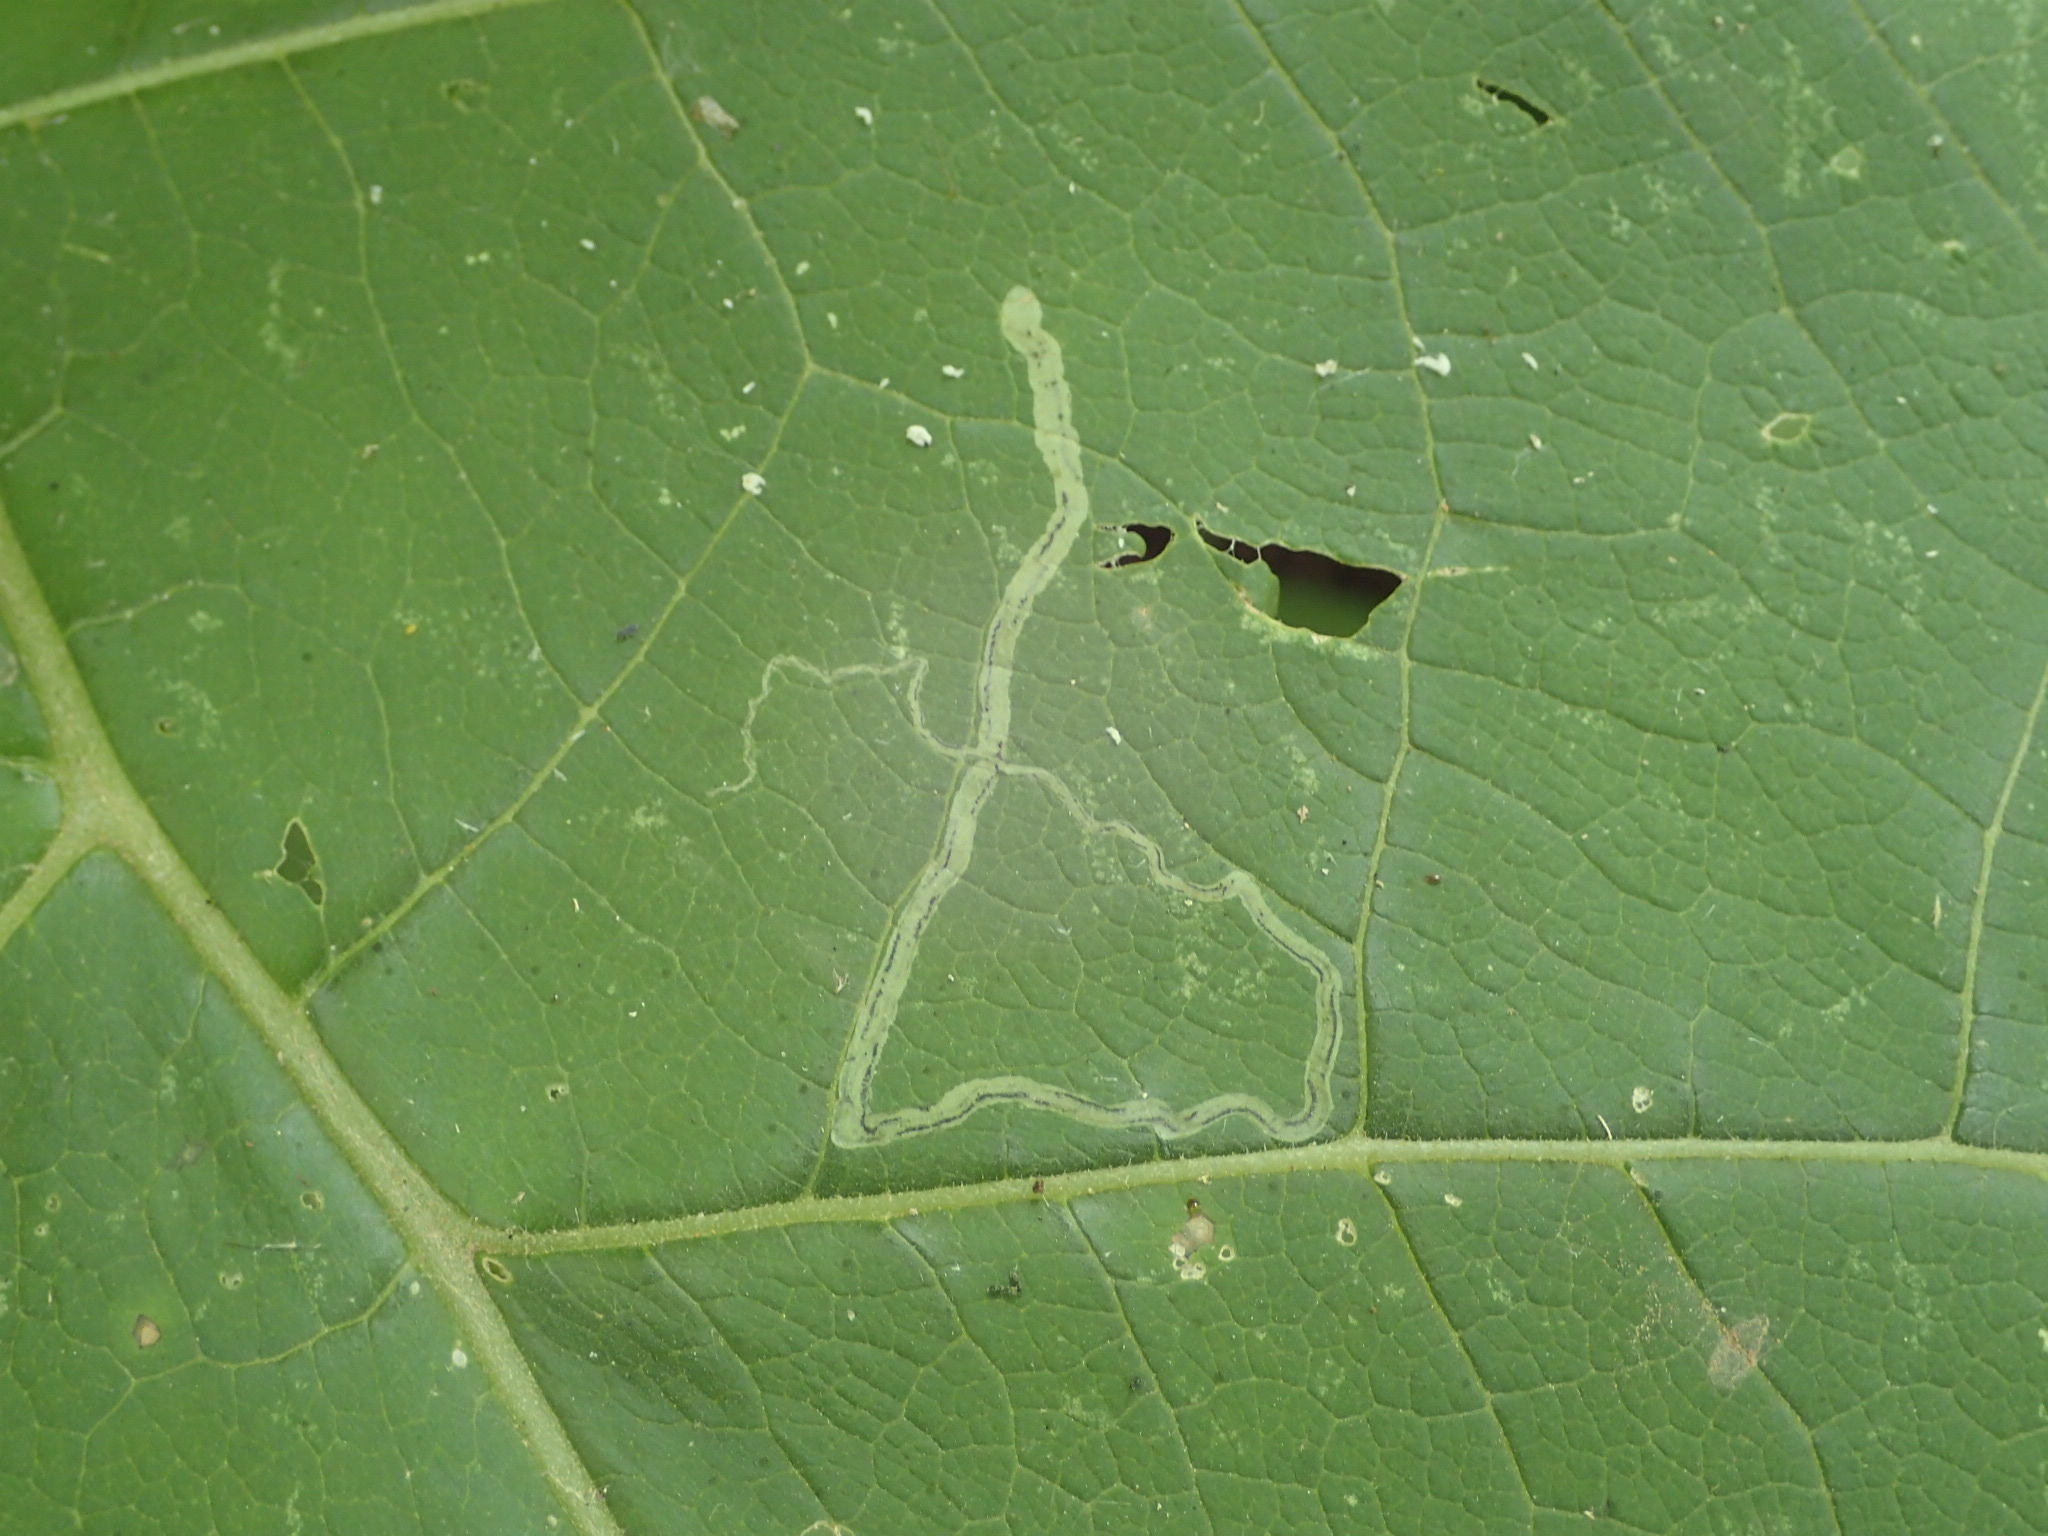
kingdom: Animalia
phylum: Arthropoda
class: Insecta
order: Diptera
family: Agromyzidae
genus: Liriomyza
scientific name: Liriomyza arctii
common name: Burdock leafminer
